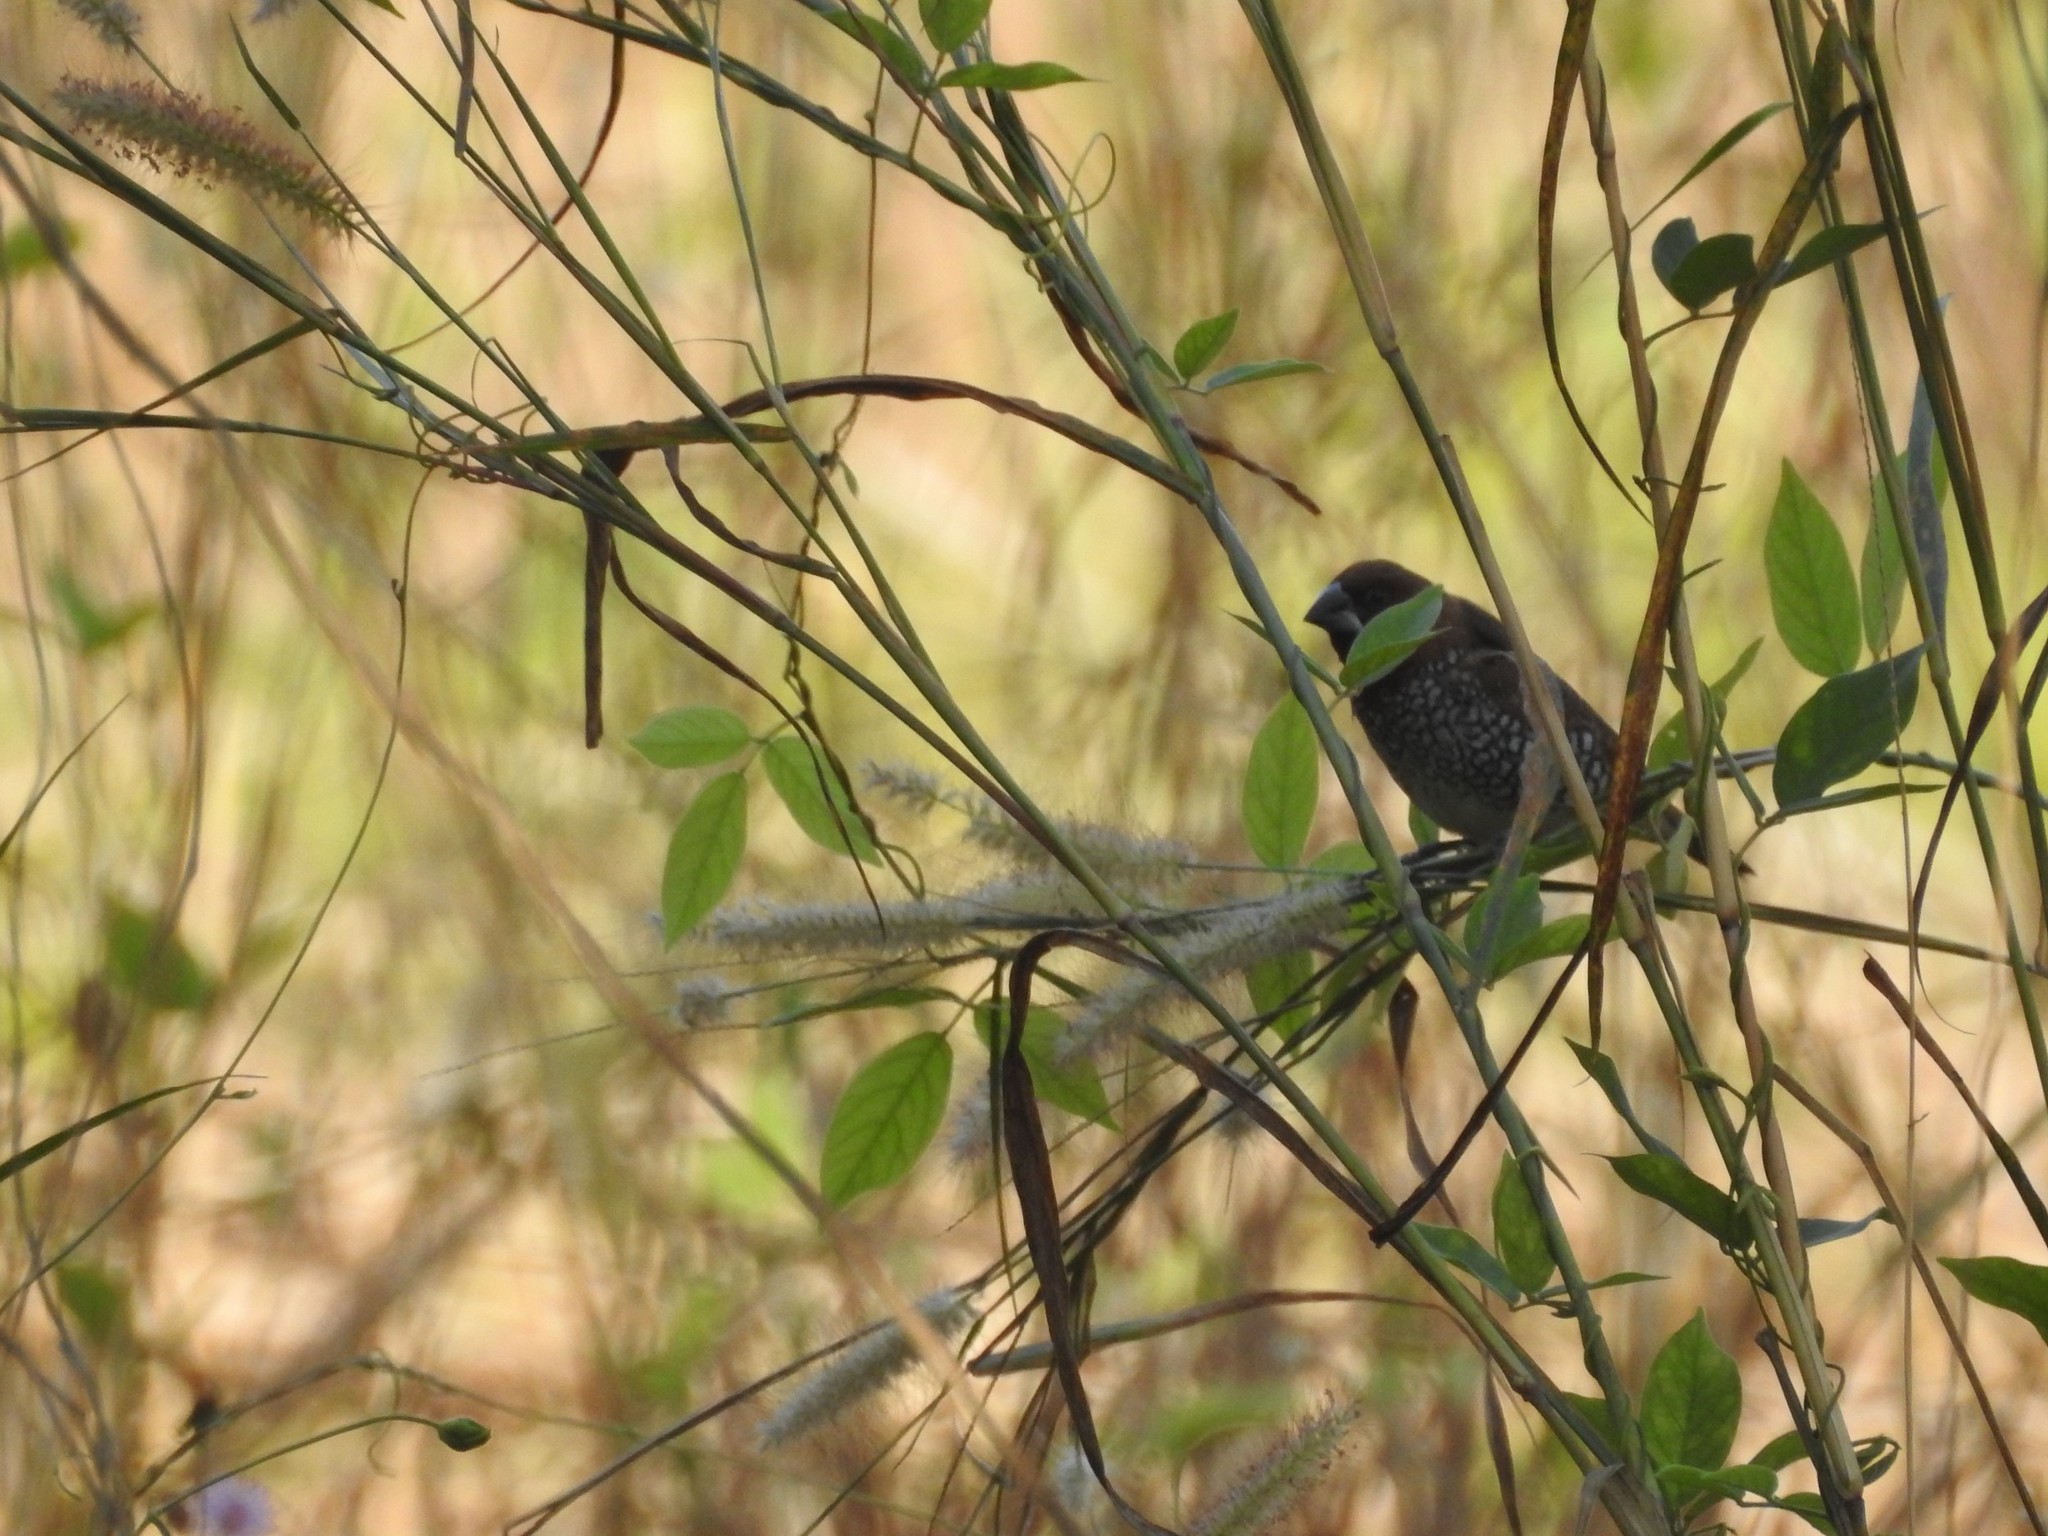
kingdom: Animalia
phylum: Chordata
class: Aves
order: Passeriformes
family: Estrildidae
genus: Lonchura
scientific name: Lonchura punctulata
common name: Scaly-breasted munia
